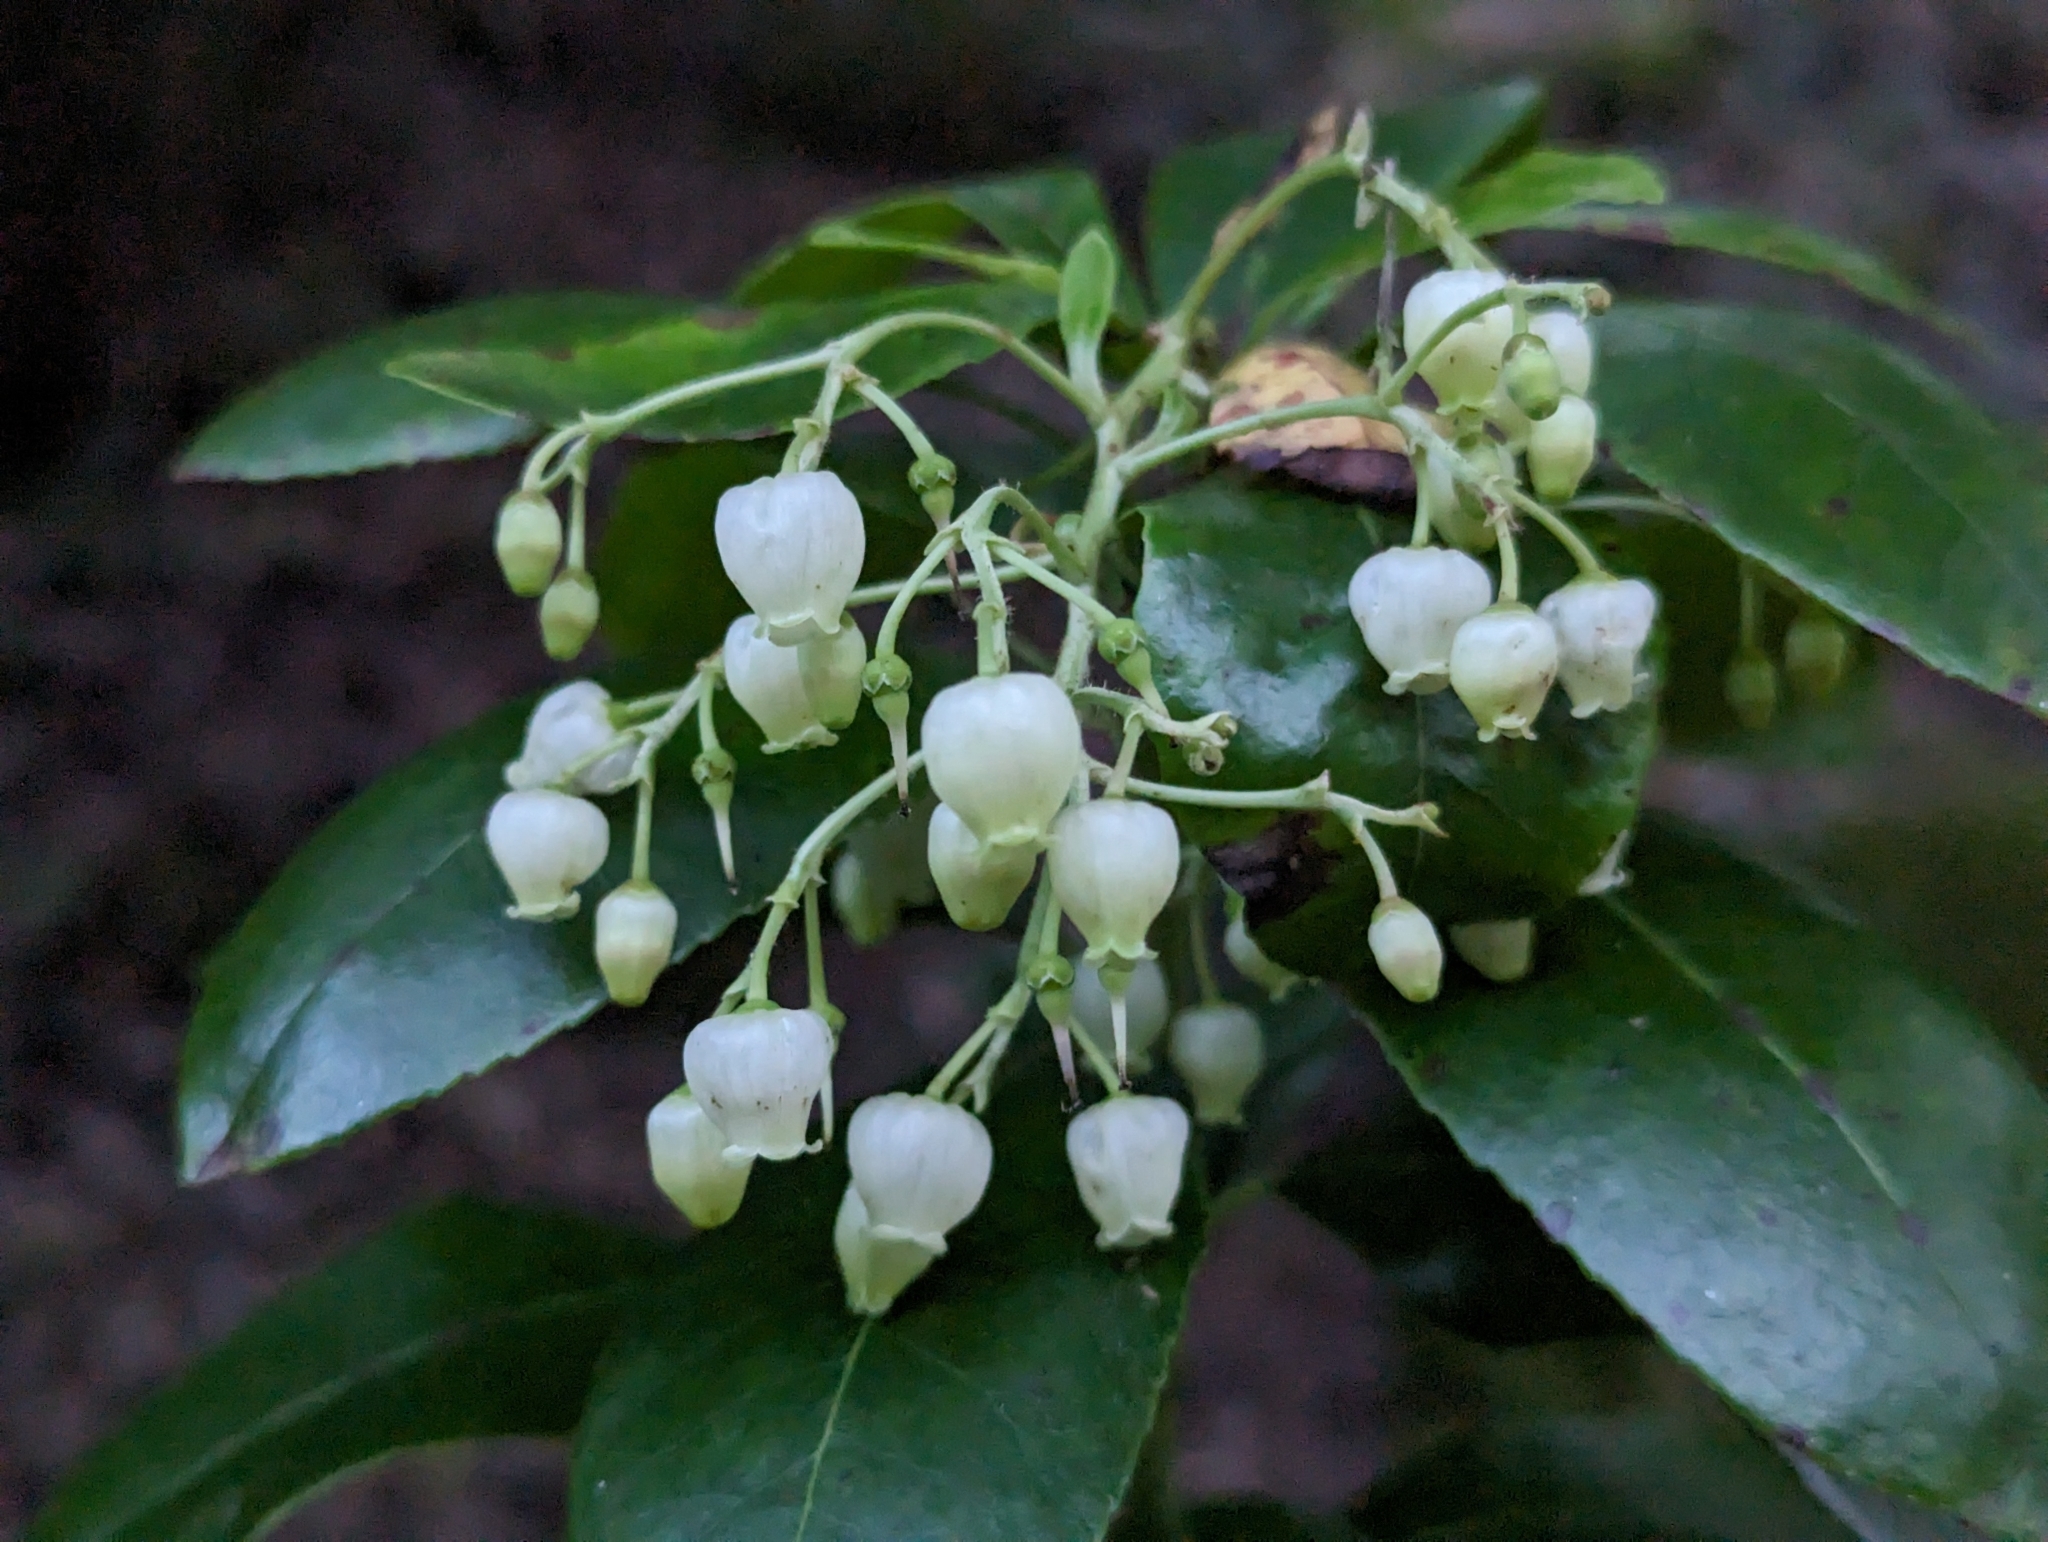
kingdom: Plantae
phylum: Tracheophyta
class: Magnoliopsida
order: Ericales
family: Ericaceae
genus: Arbutus
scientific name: Arbutus unedo
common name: Strawberry-tree
